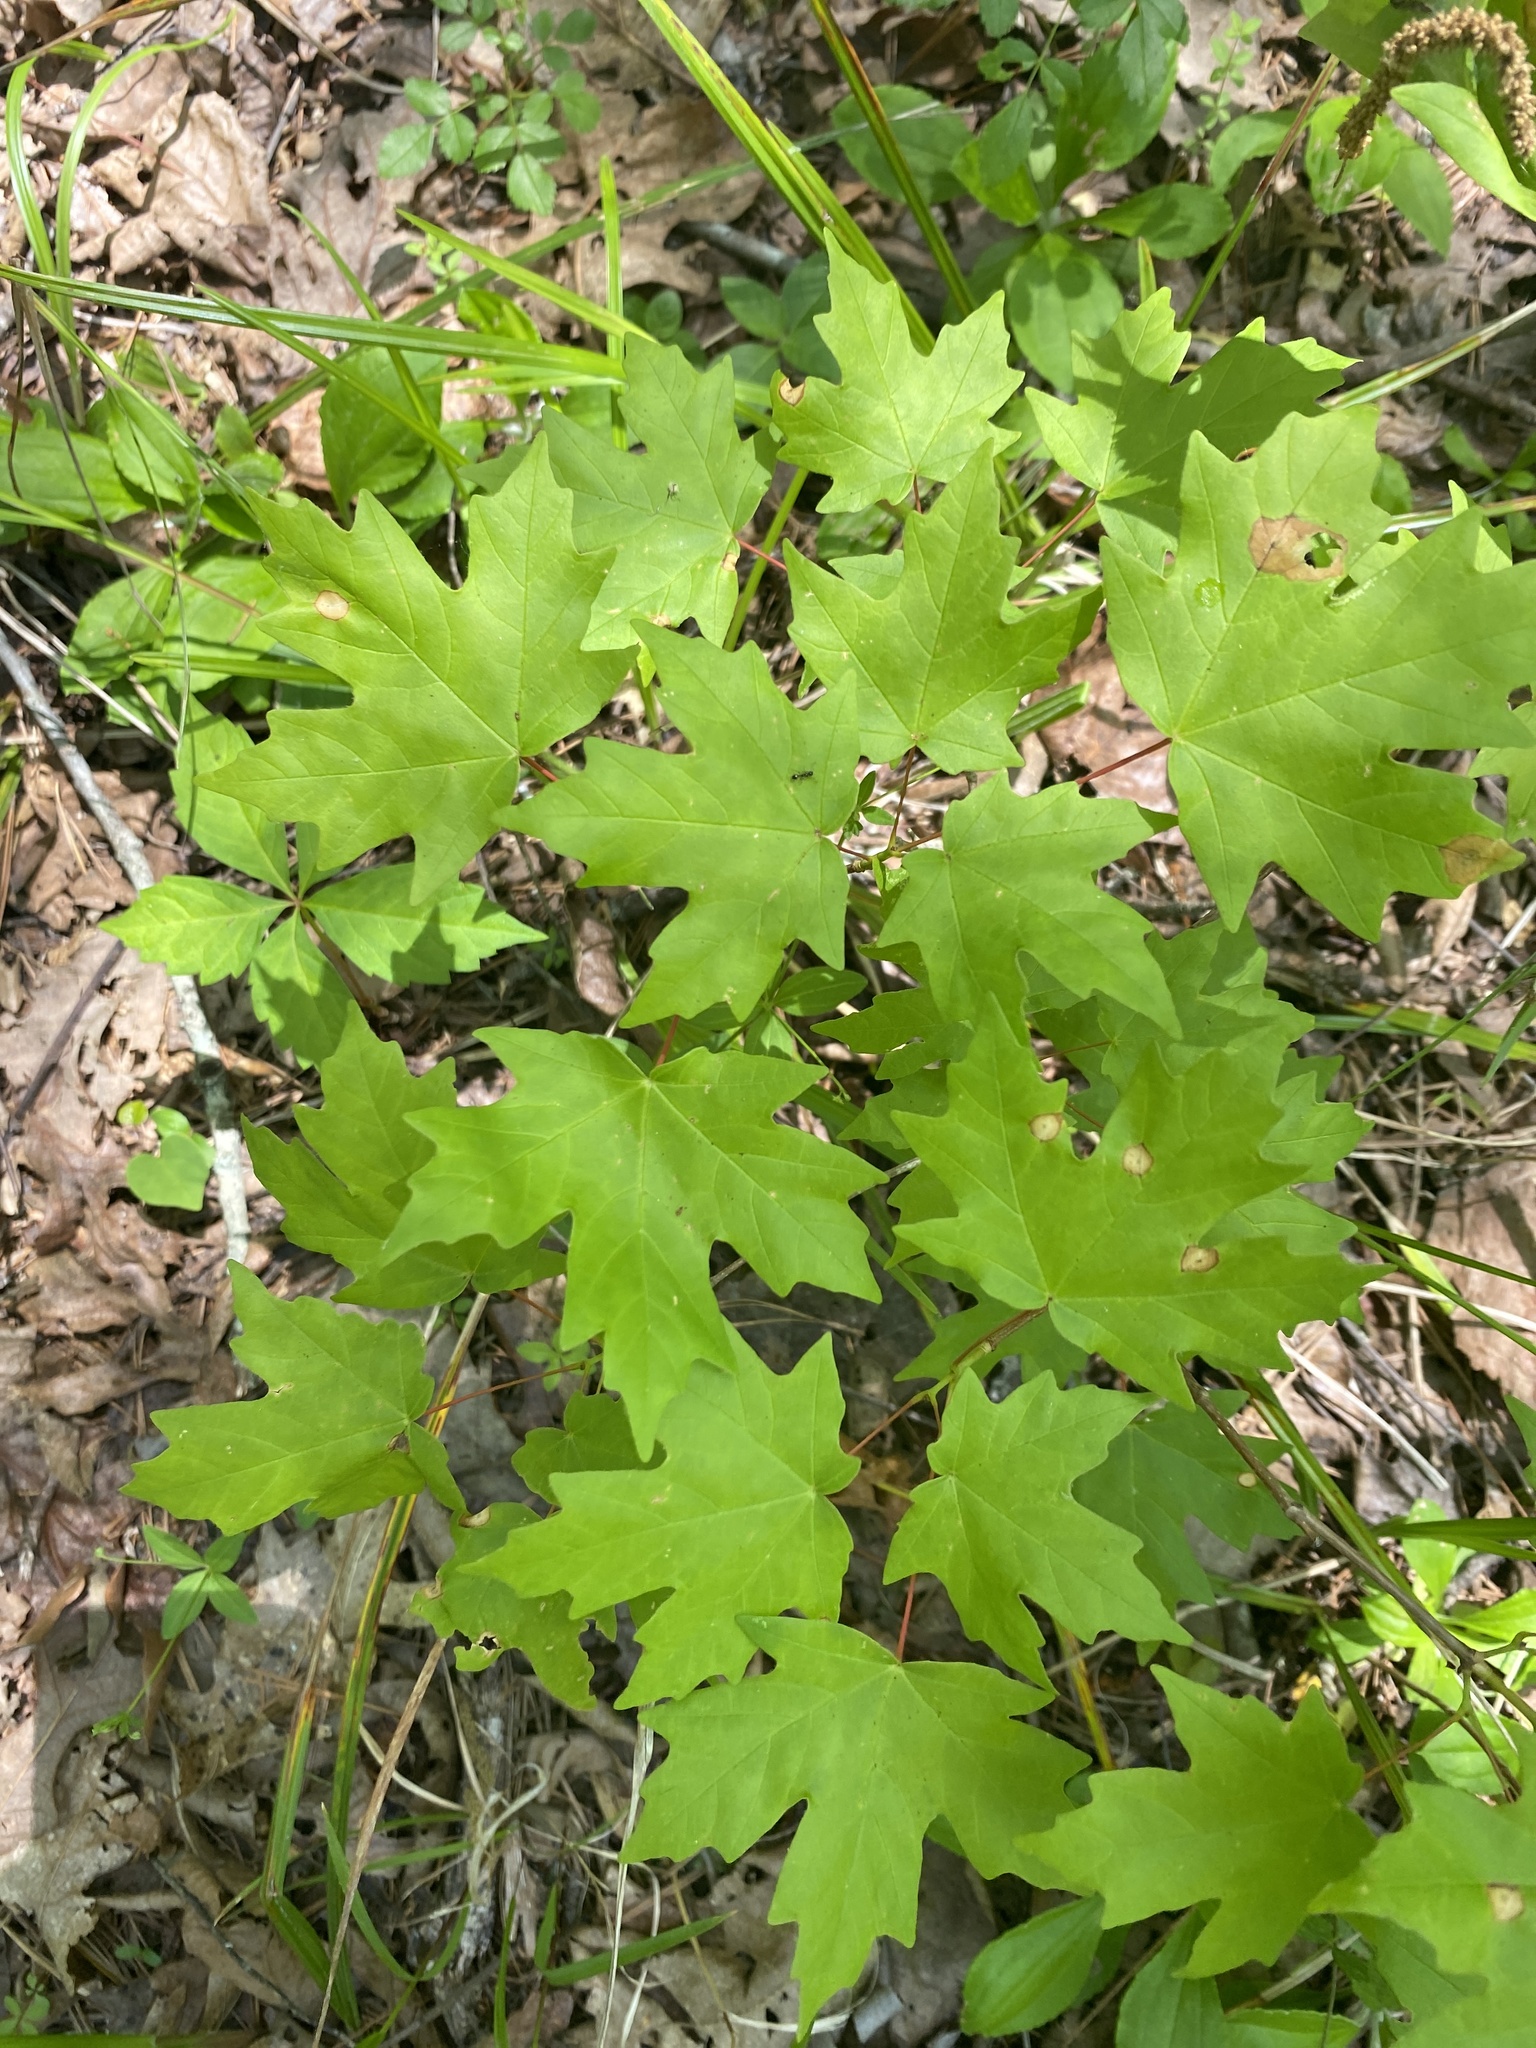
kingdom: Plantae
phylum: Tracheophyta
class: Magnoliopsida
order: Sapindales
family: Sapindaceae
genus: Acer
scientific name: Acer floridanum
